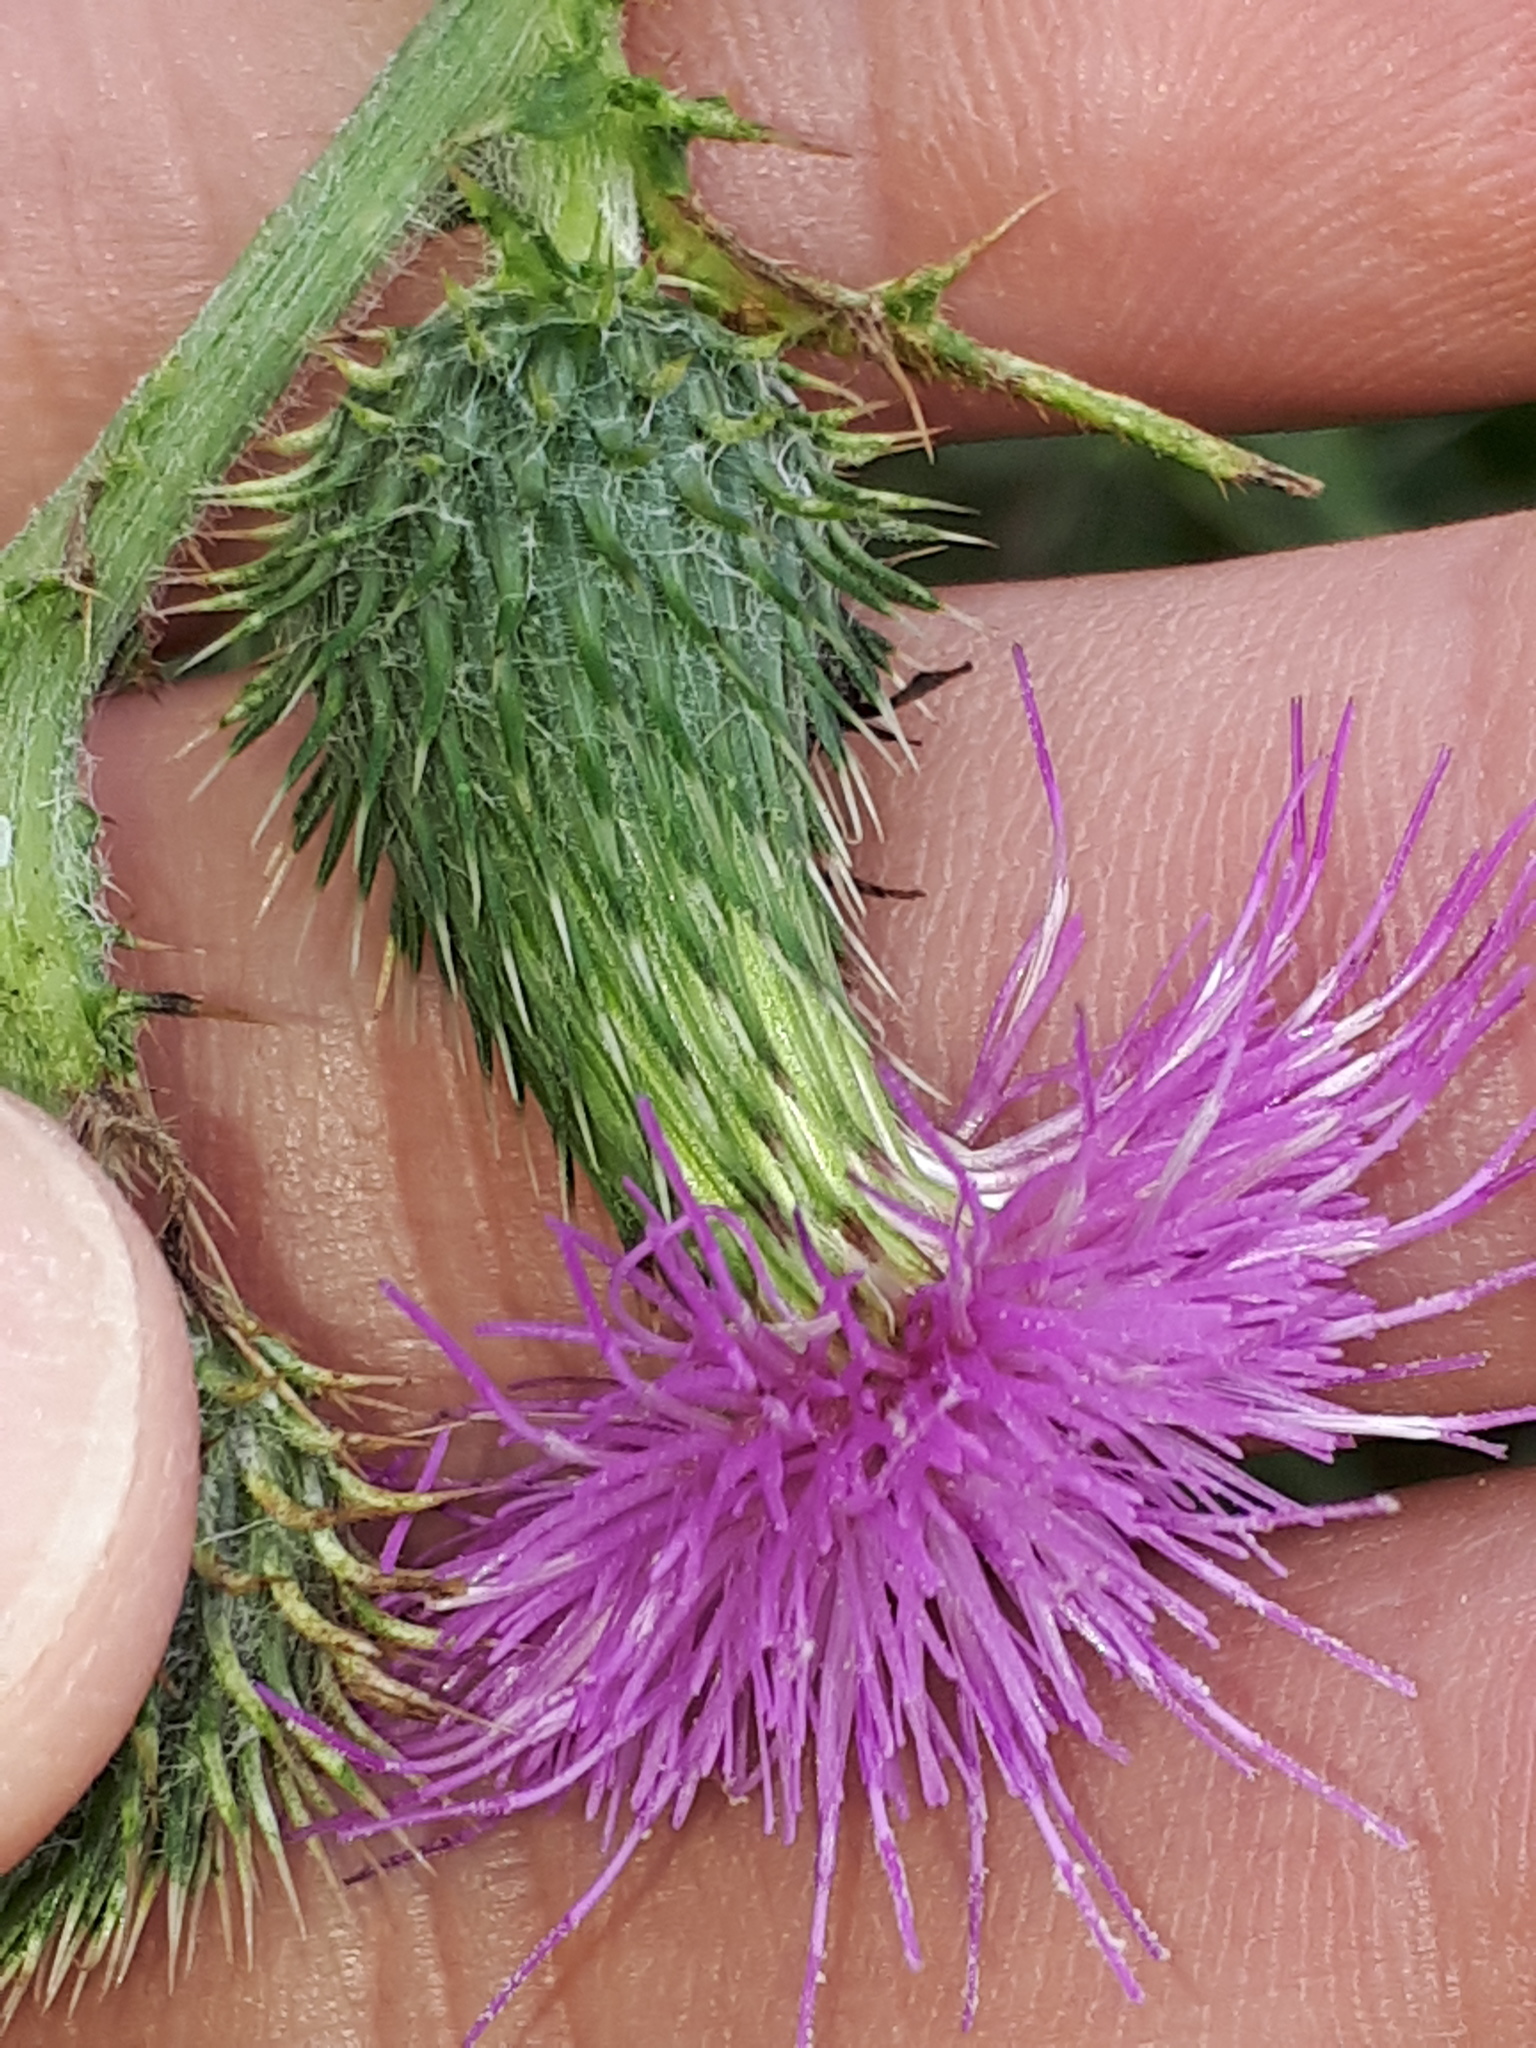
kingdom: Plantae
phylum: Tracheophyta
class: Magnoliopsida
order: Asterales
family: Asteraceae
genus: Cirsium
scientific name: Cirsium vulgare
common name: Bull thistle
